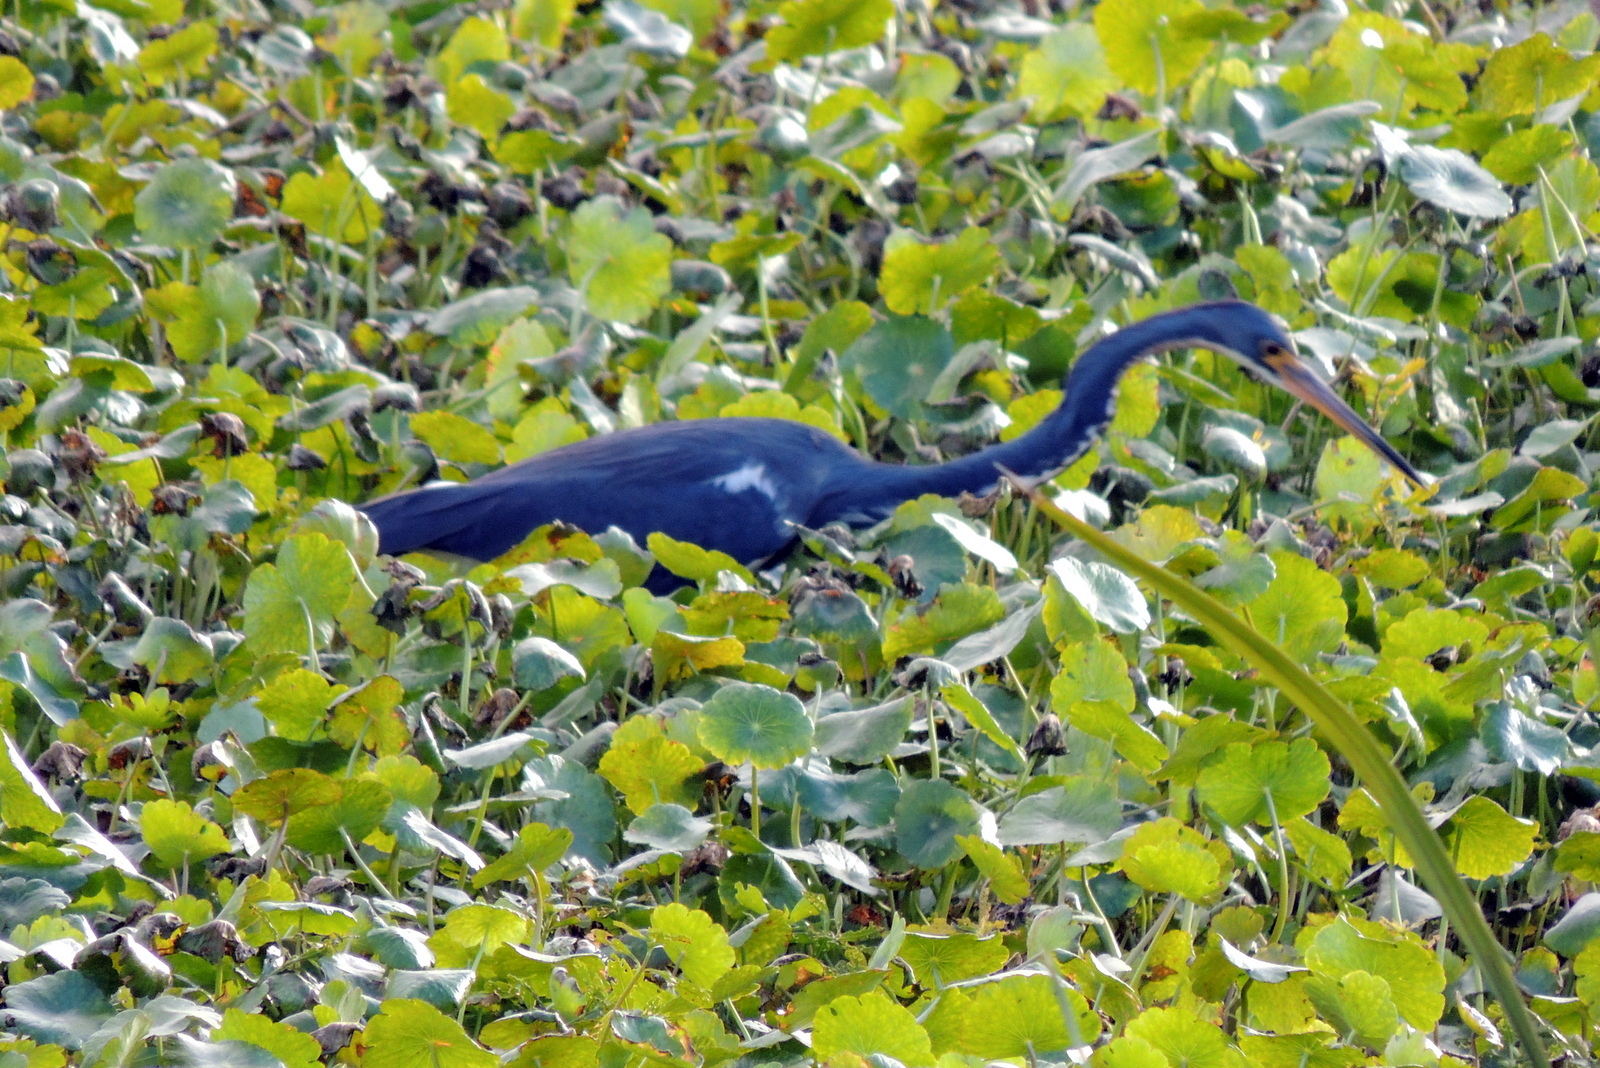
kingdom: Animalia
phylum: Chordata
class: Aves
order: Pelecaniformes
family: Ardeidae
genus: Egretta
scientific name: Egretta tricolor
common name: Tricolored heron
